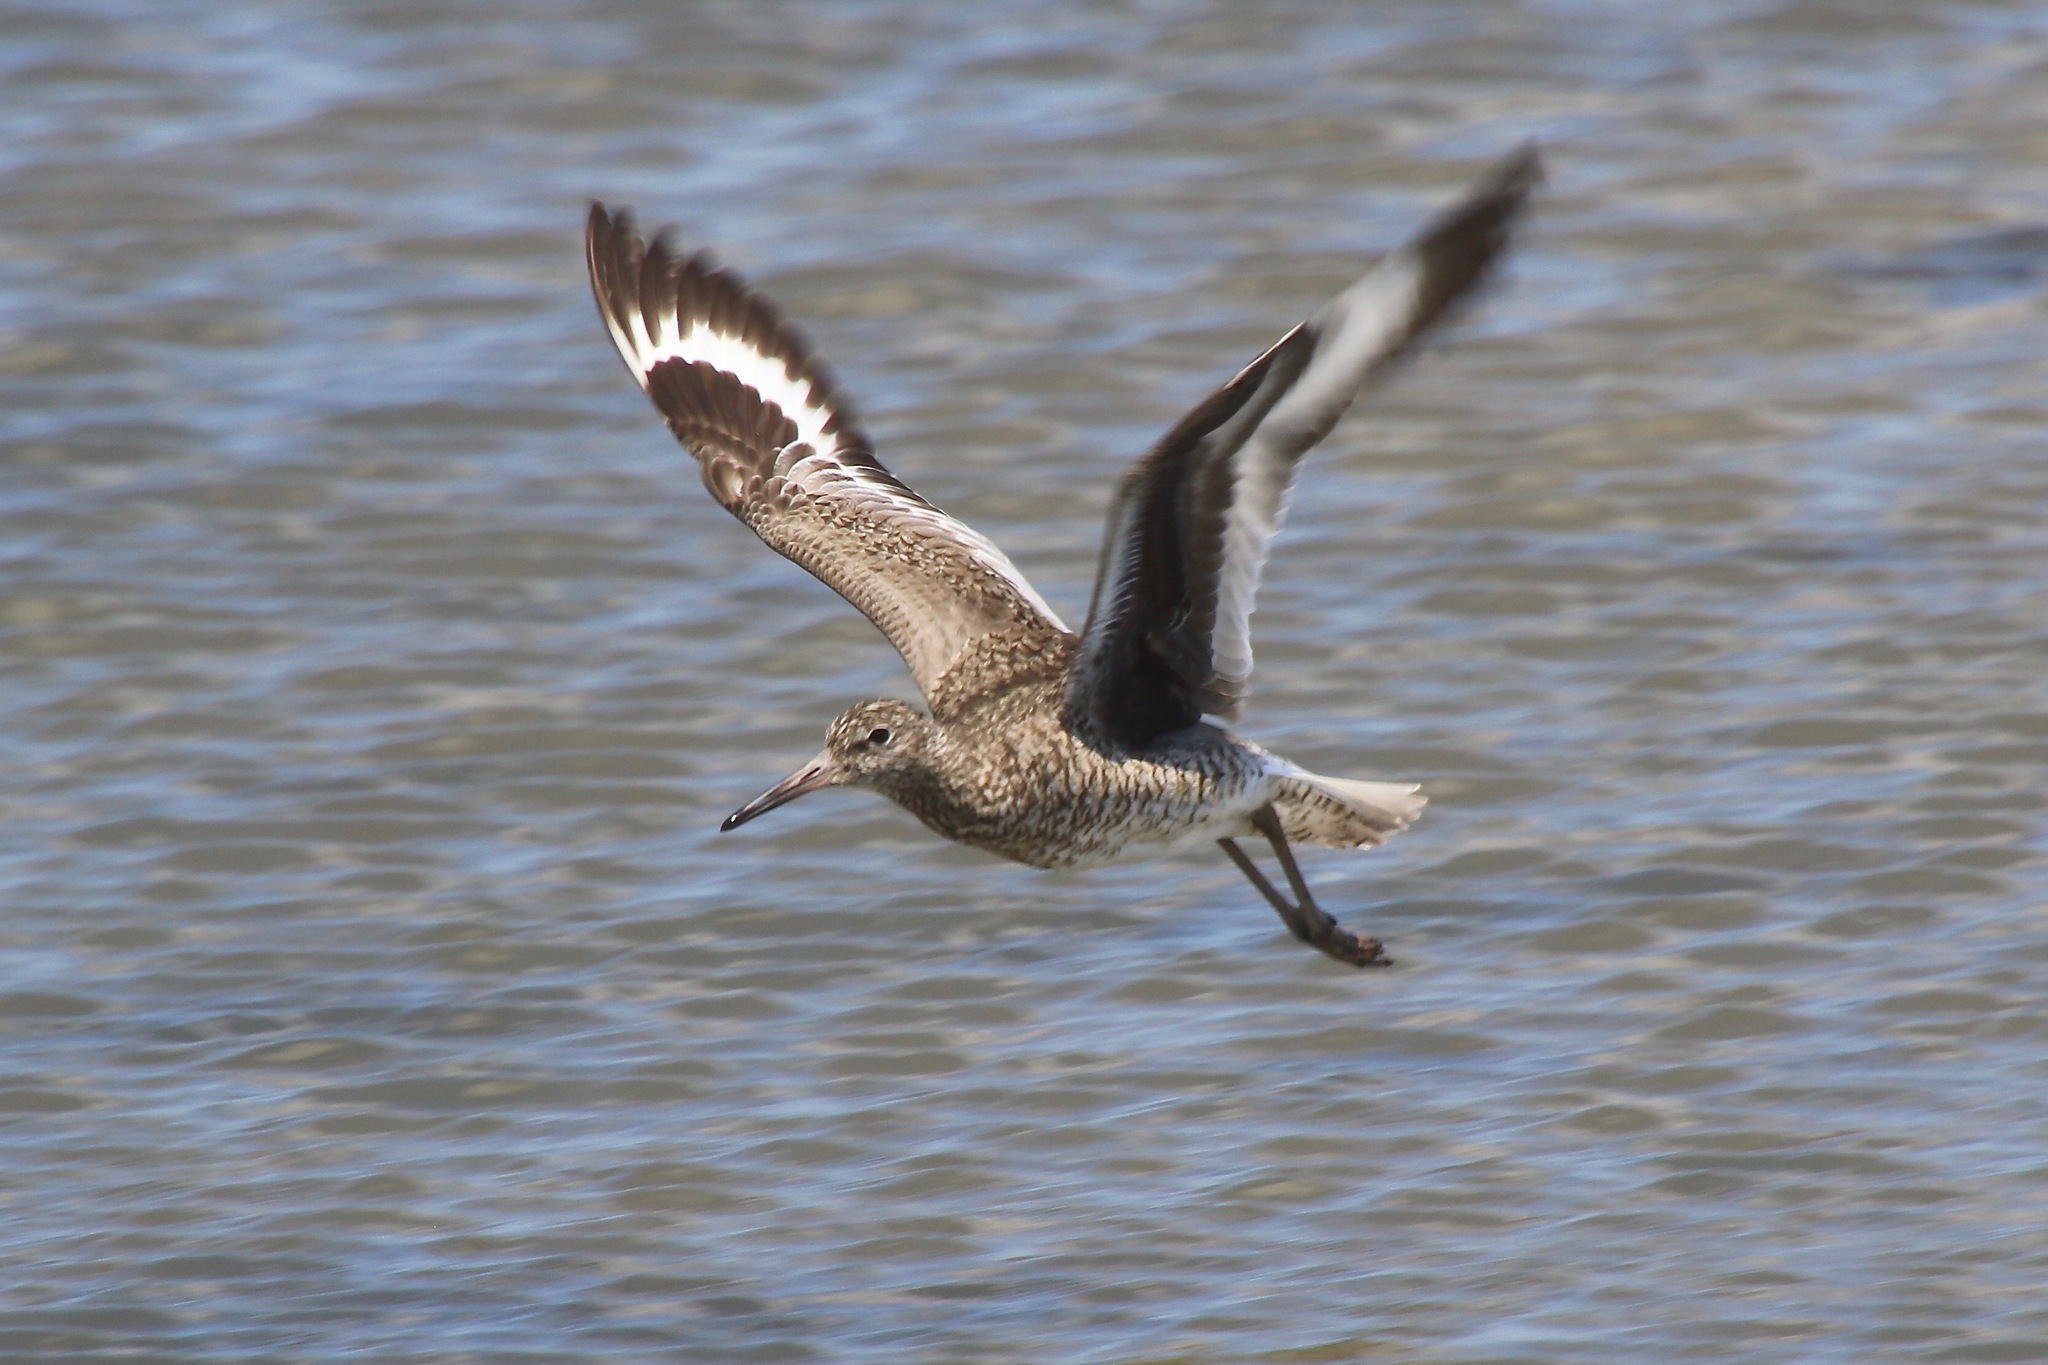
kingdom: Animalia
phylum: Chordata
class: Aves
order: Charadriiformes
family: Scolopacidae
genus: Tringa
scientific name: Tringa semipalmata
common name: Willet
